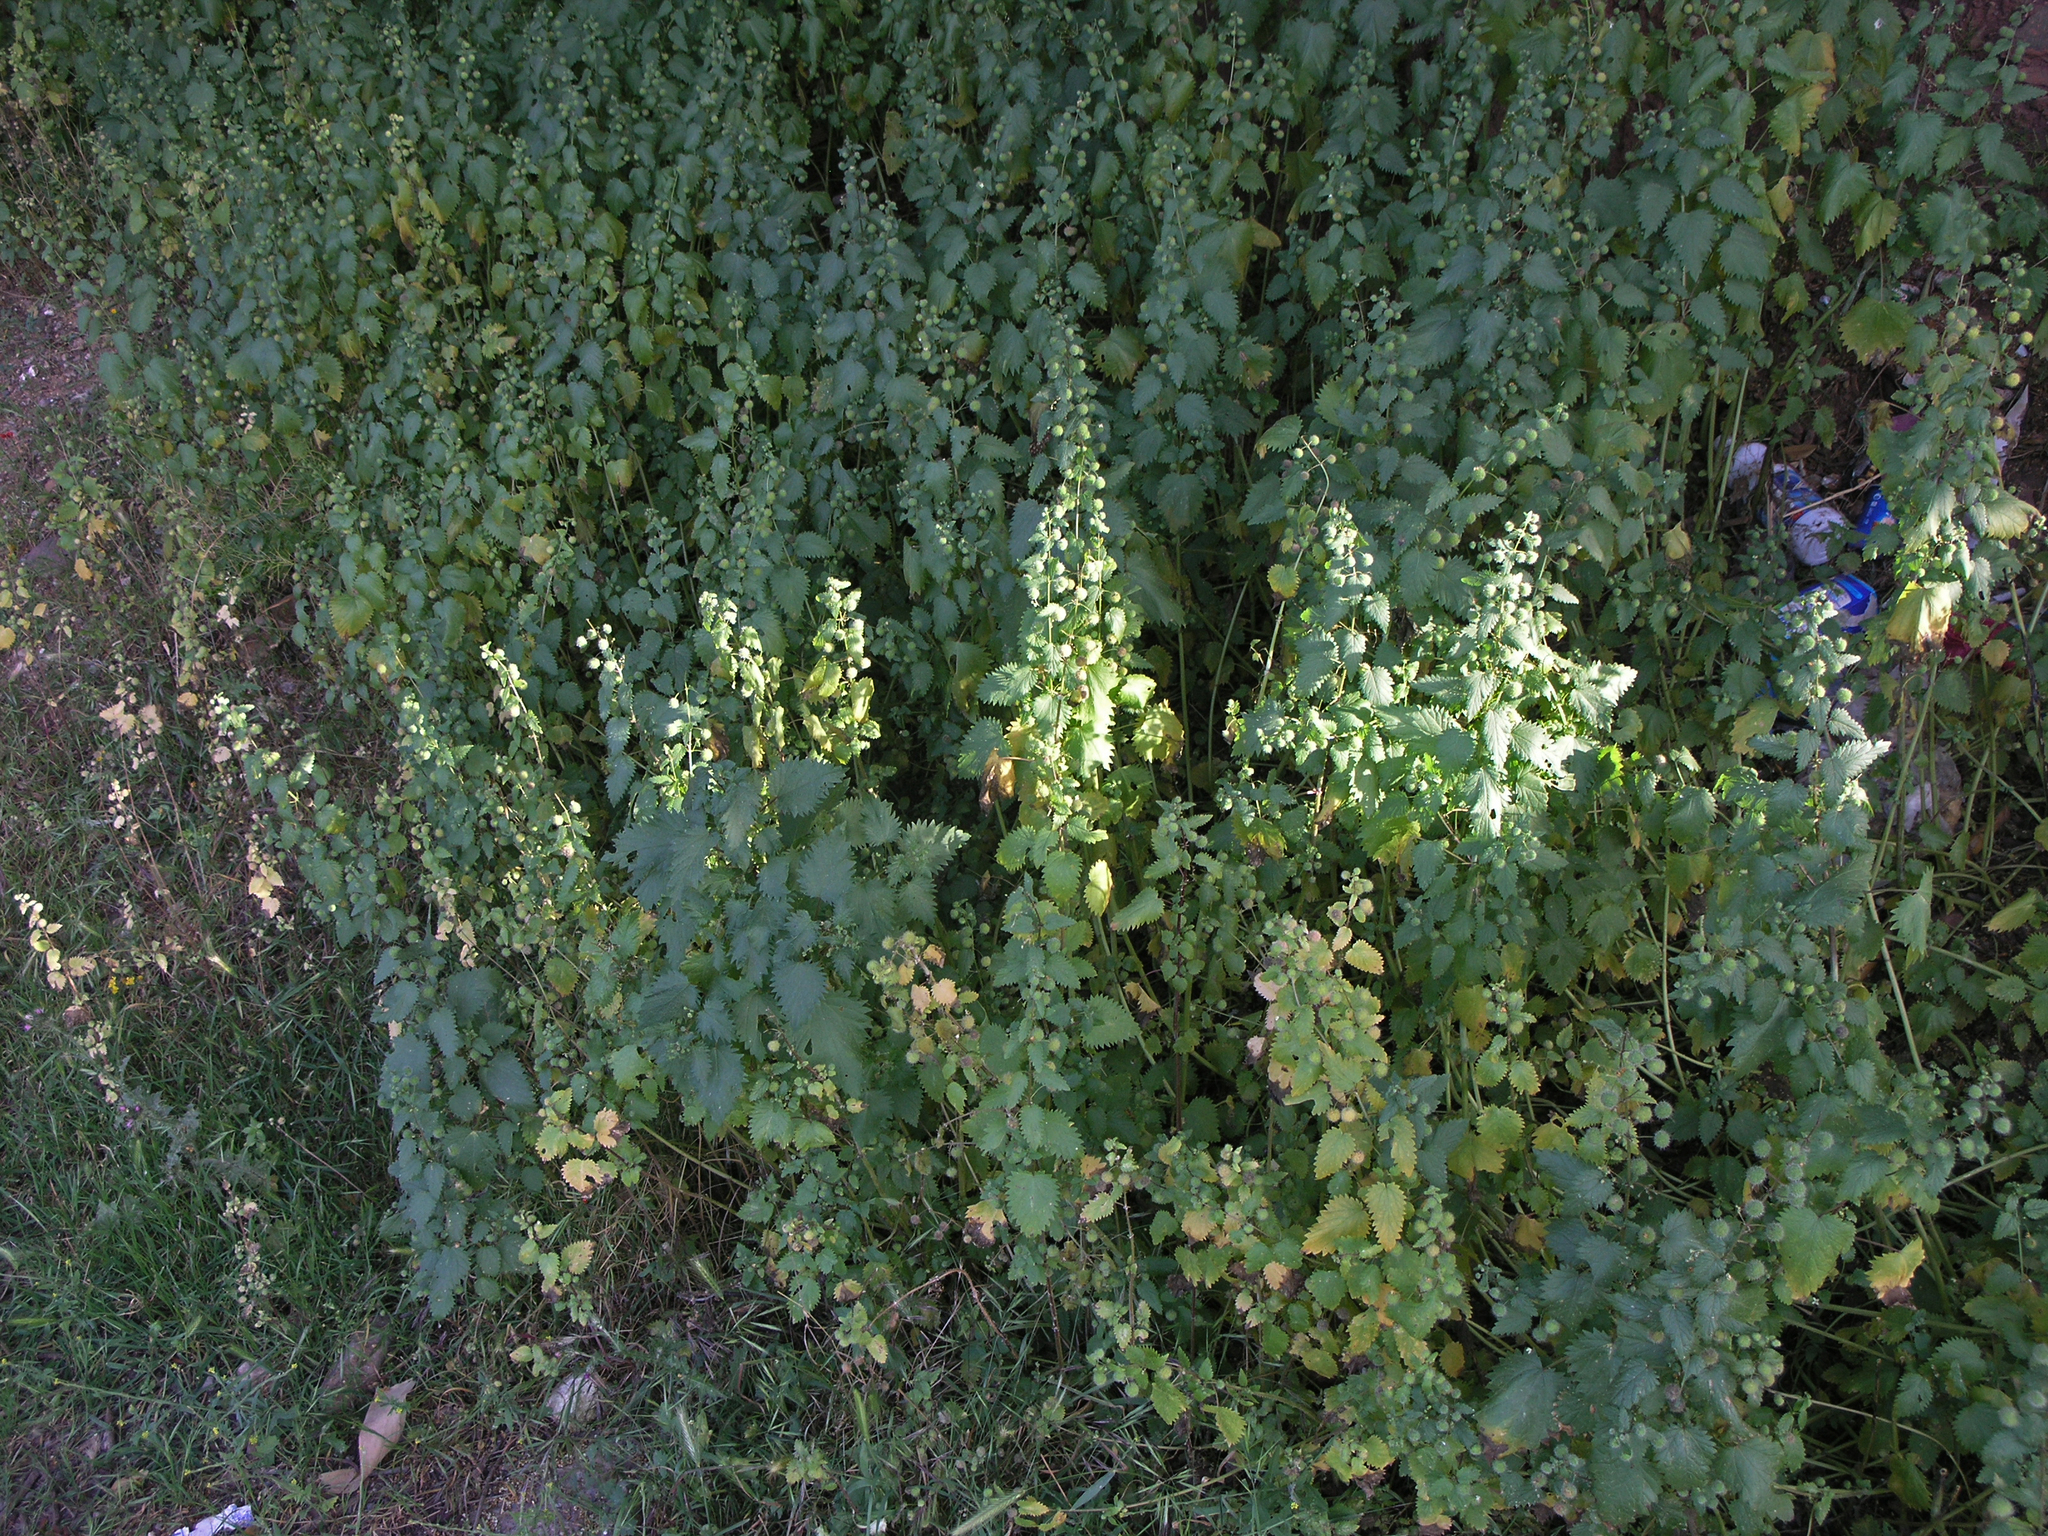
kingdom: Plantae
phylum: Tracheophyta
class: Magnoliopsida
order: Rosales
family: Urticaceae
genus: Urtica
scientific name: Urtica pilulifera
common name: Roman nettle
